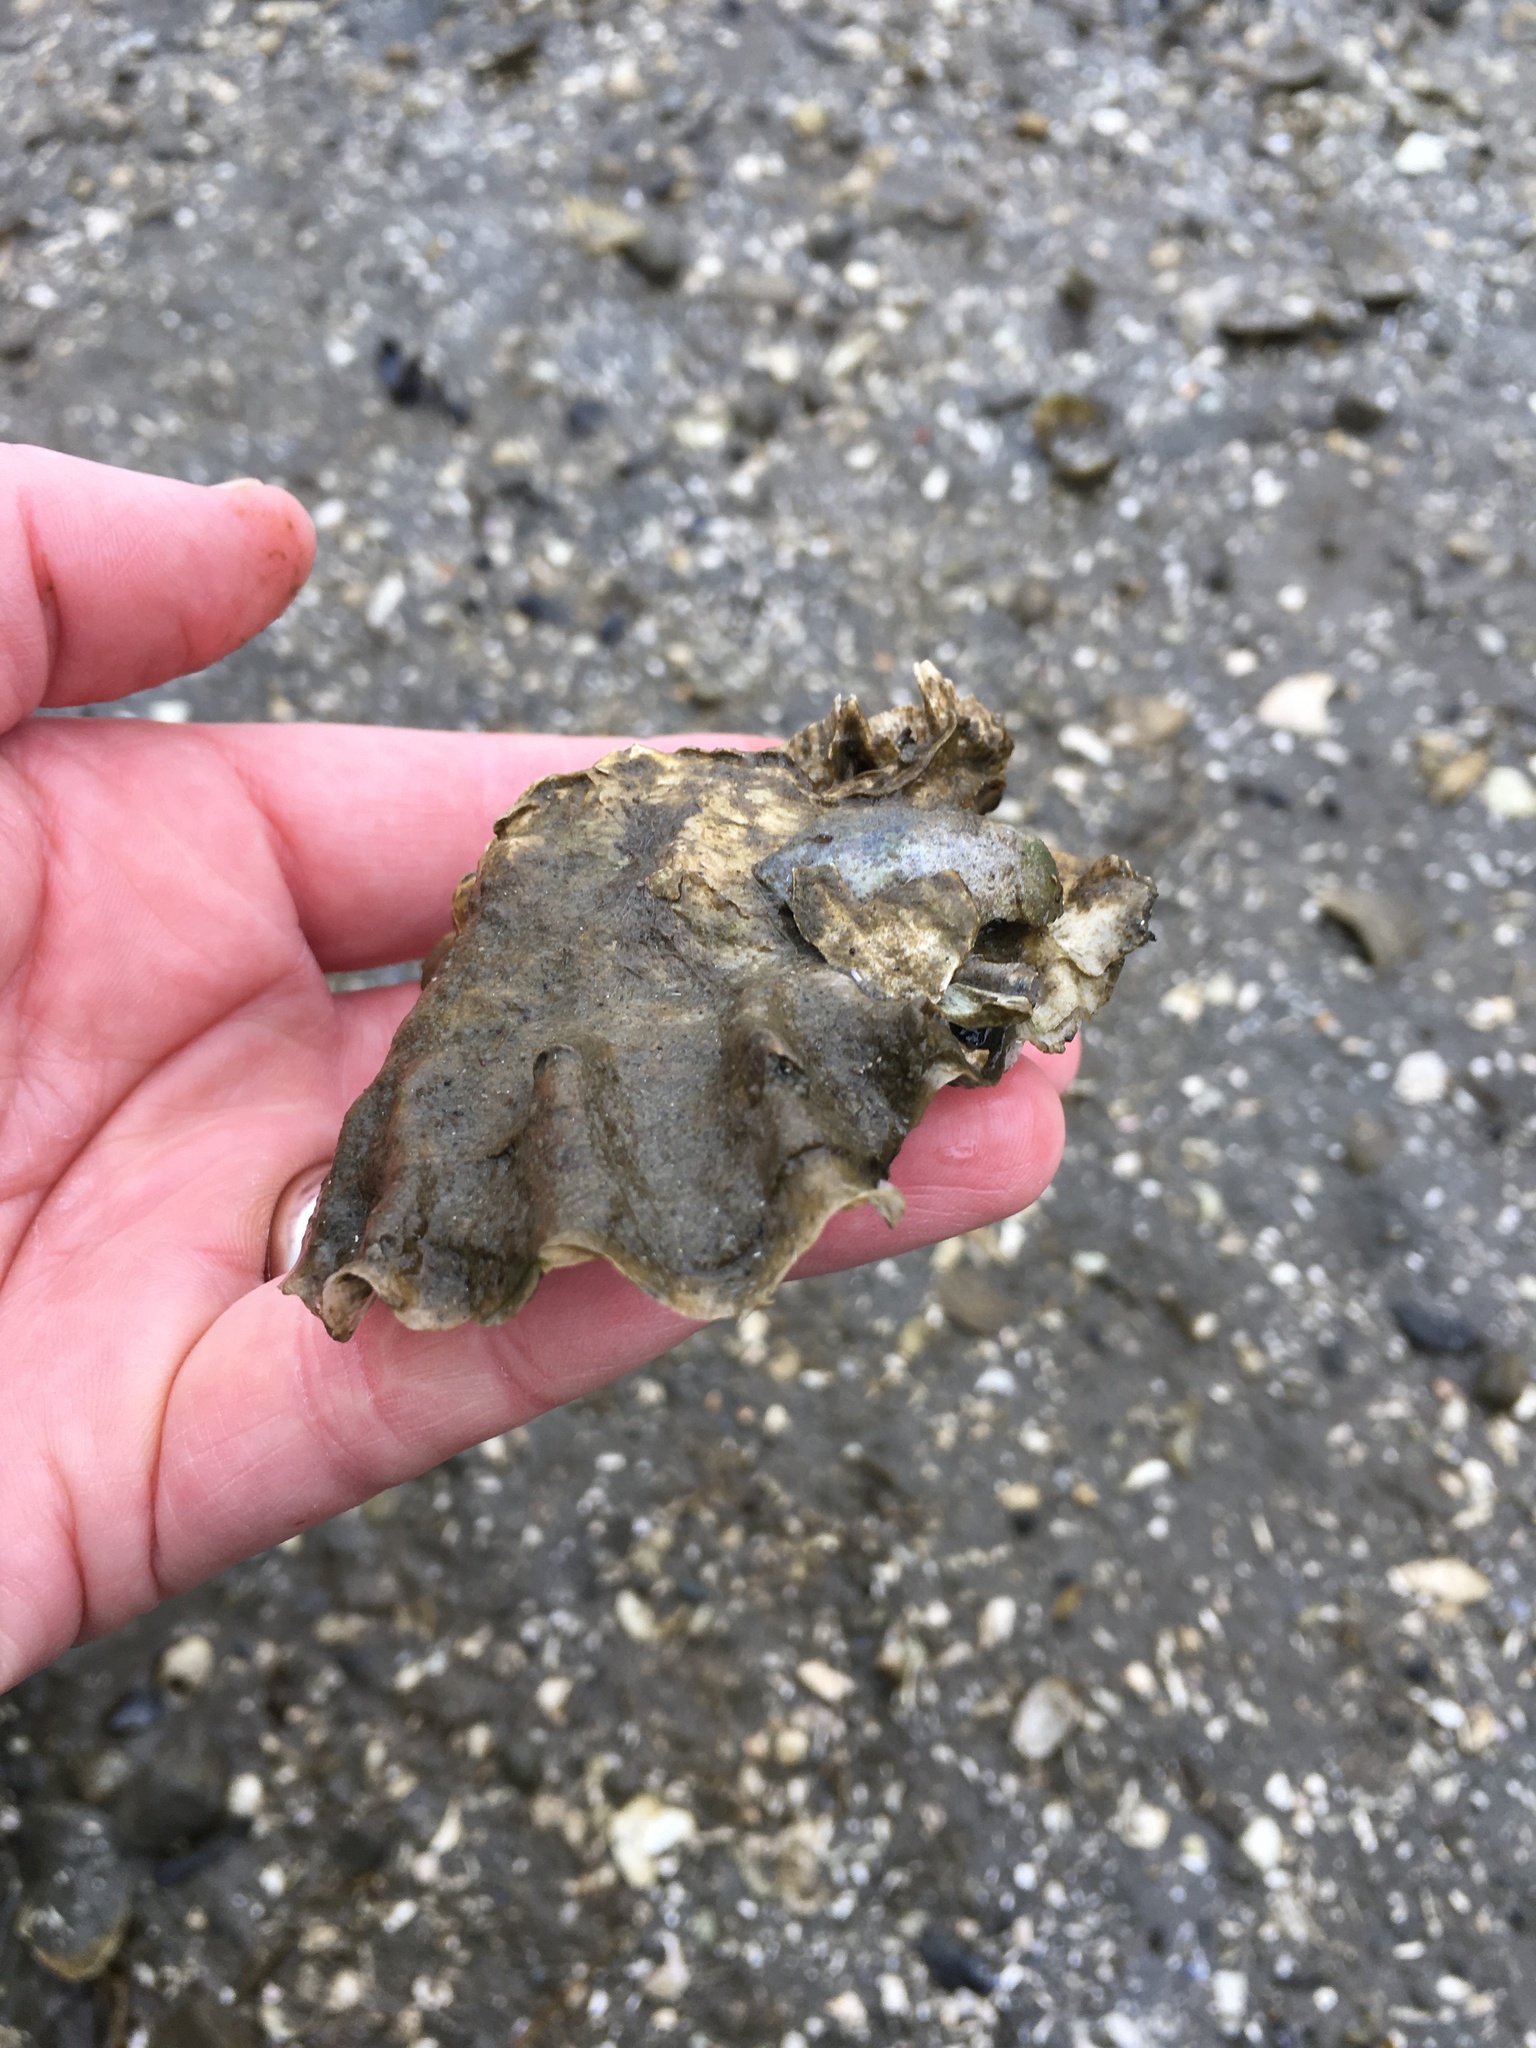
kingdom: Animalia
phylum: Mollusca
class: Bivalvia
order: Ostreida
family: Ostreidae
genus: Magallana
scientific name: Magallana gigas
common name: Pacific oyster
